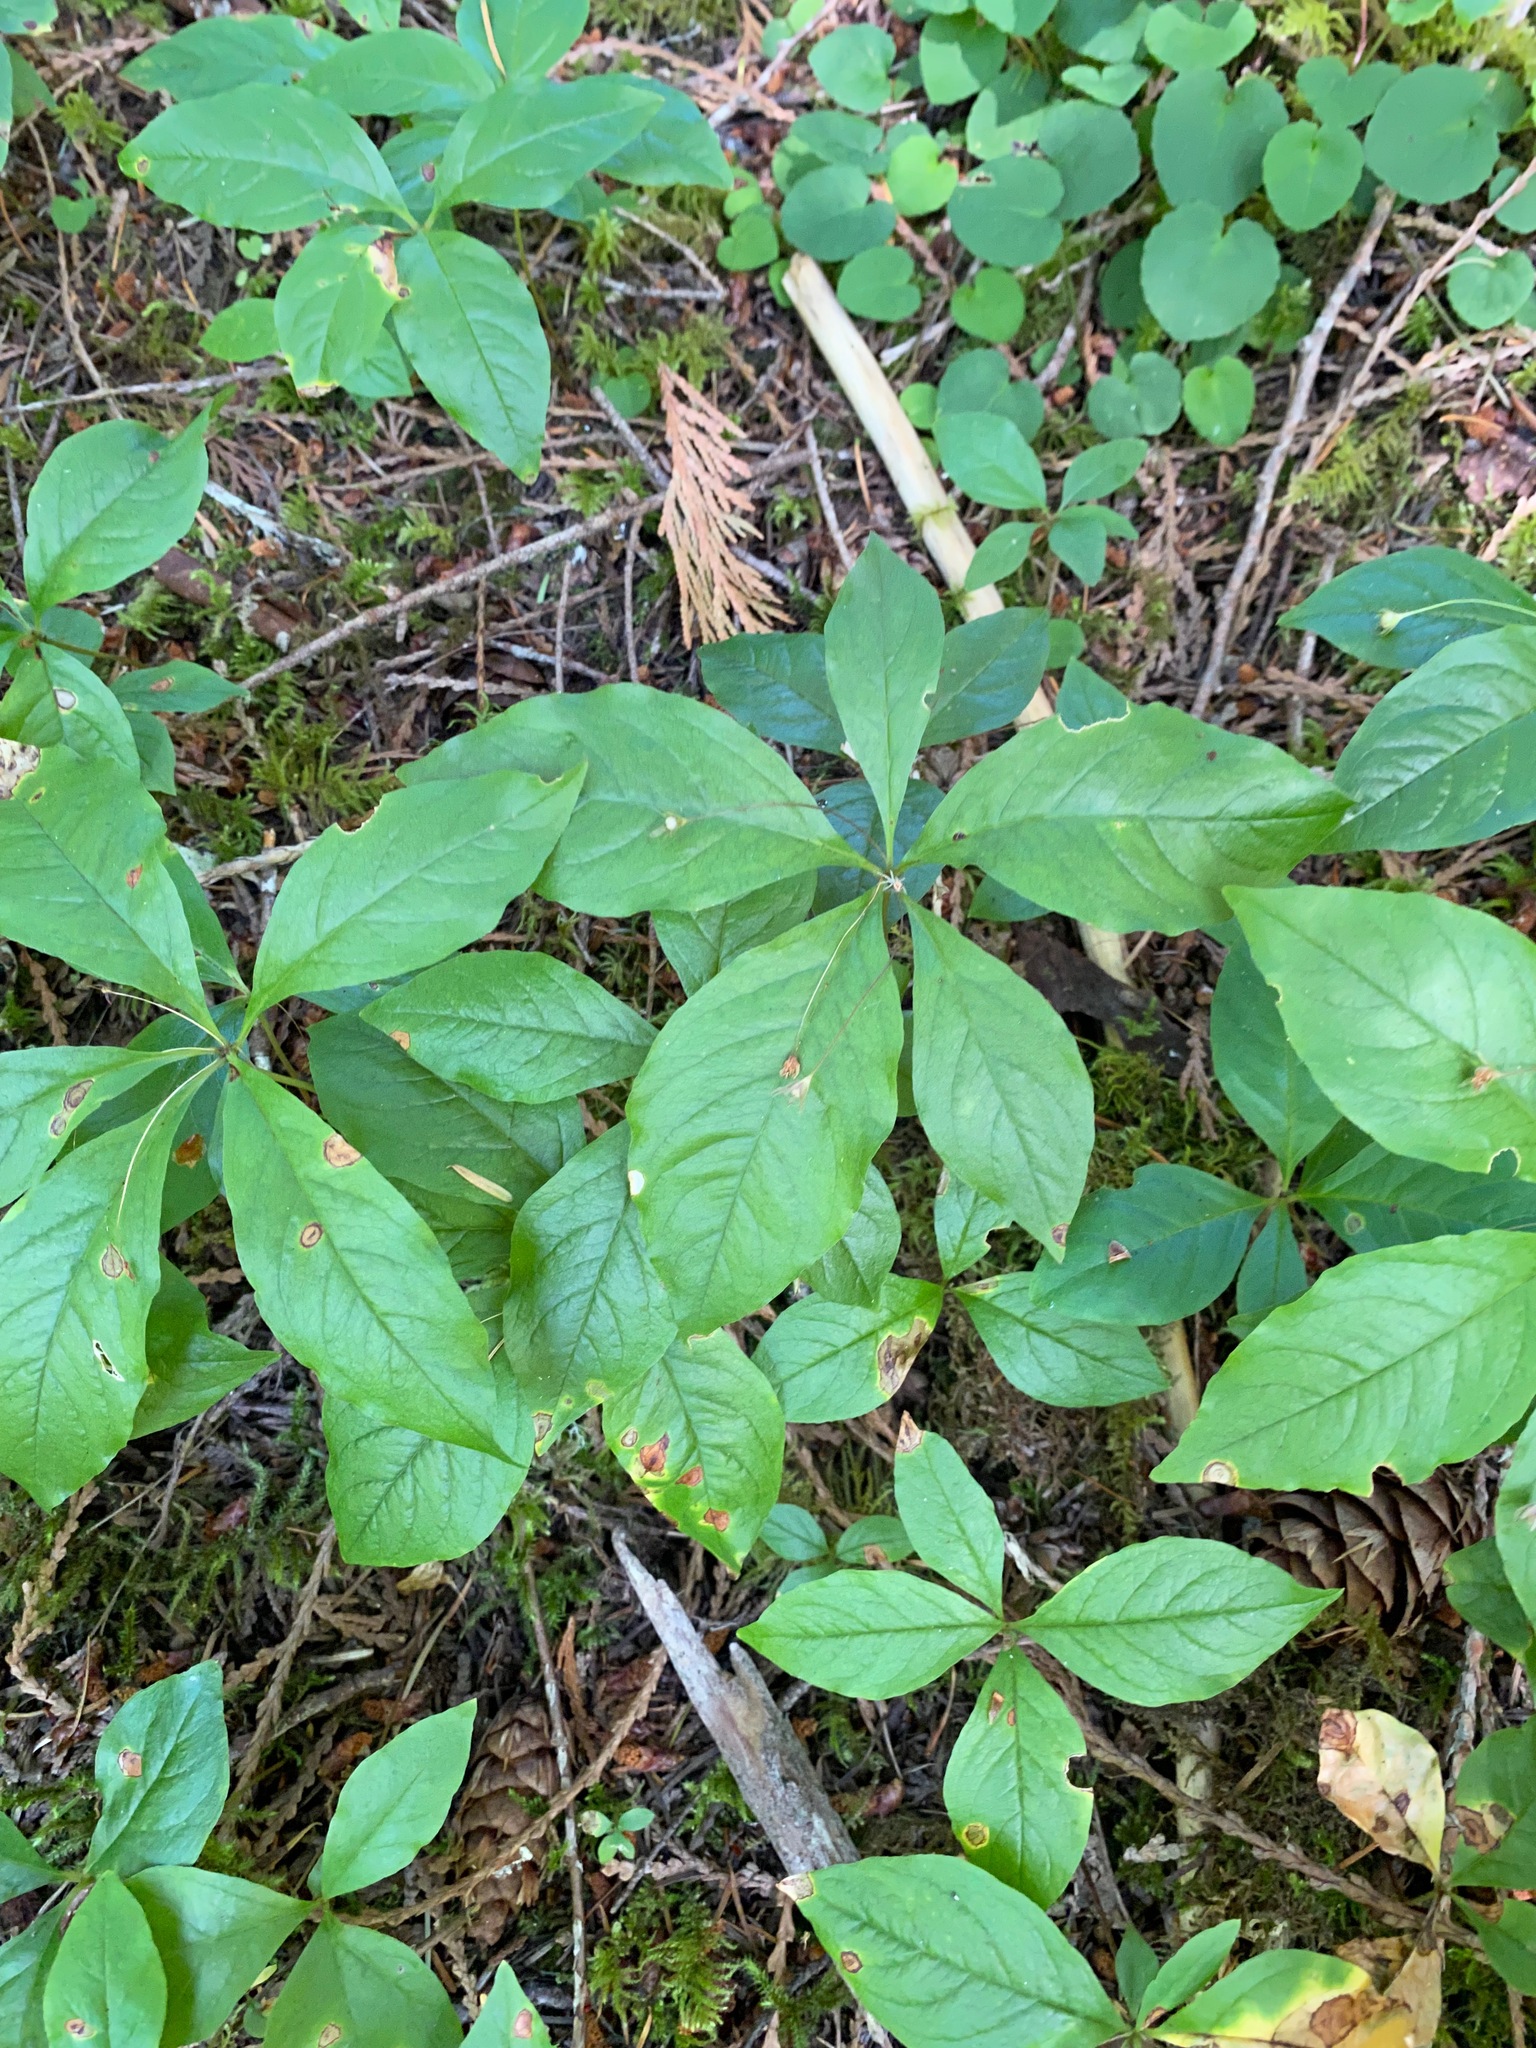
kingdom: Plantae
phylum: Tracheophyta
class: Magnoliopsida
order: Ericales
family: Primulaceae
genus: Lysimachia
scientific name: Lysimachia latifolia
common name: Pacific starflower
